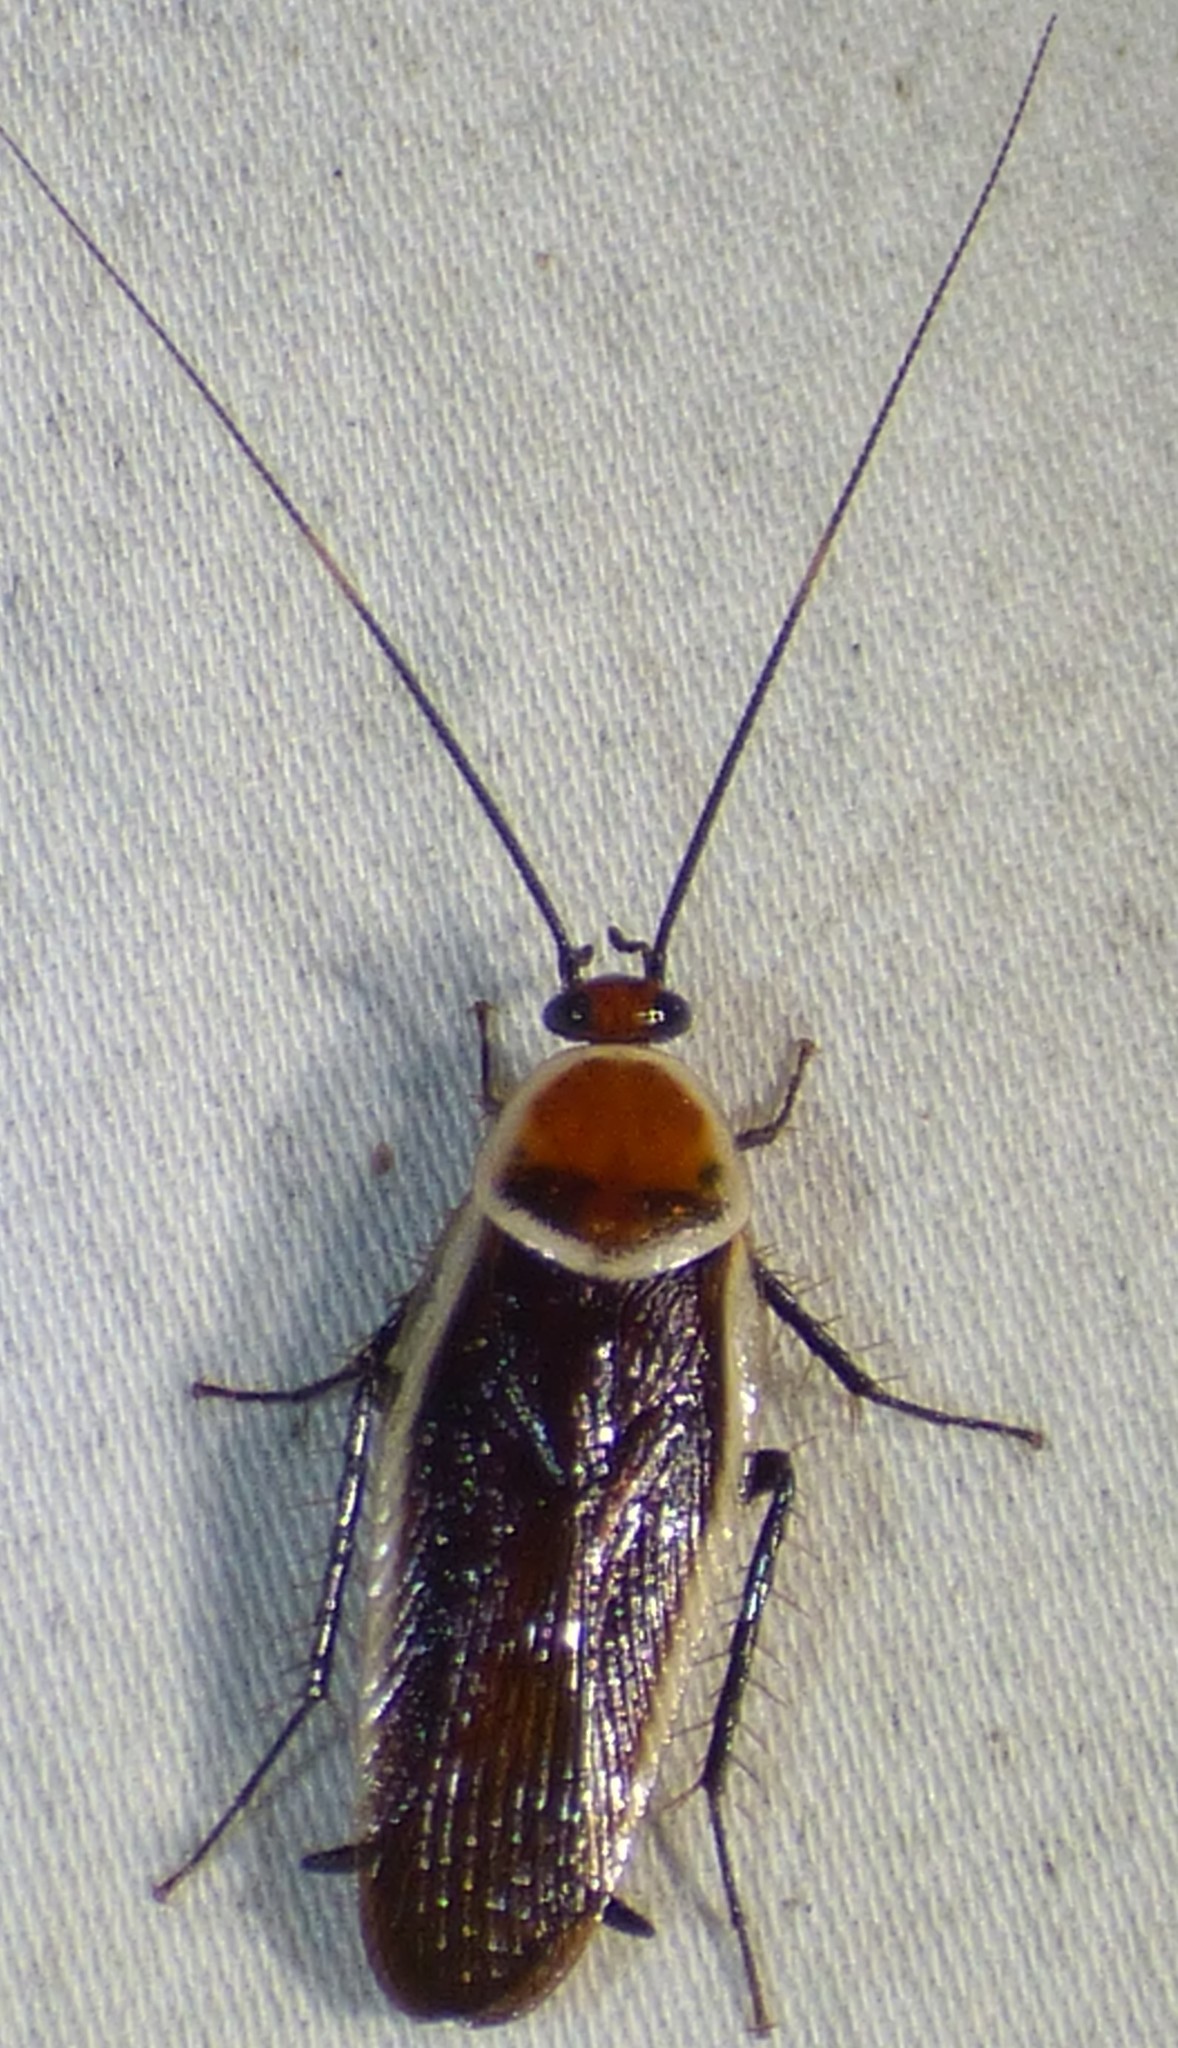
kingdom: Animalia
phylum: Arthropoda
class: Insecta
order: Blattodea
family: Ectobiidae
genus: Pseudomops
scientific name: Pseudomops septentrionalis
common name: Pale-bordered field cockroach
